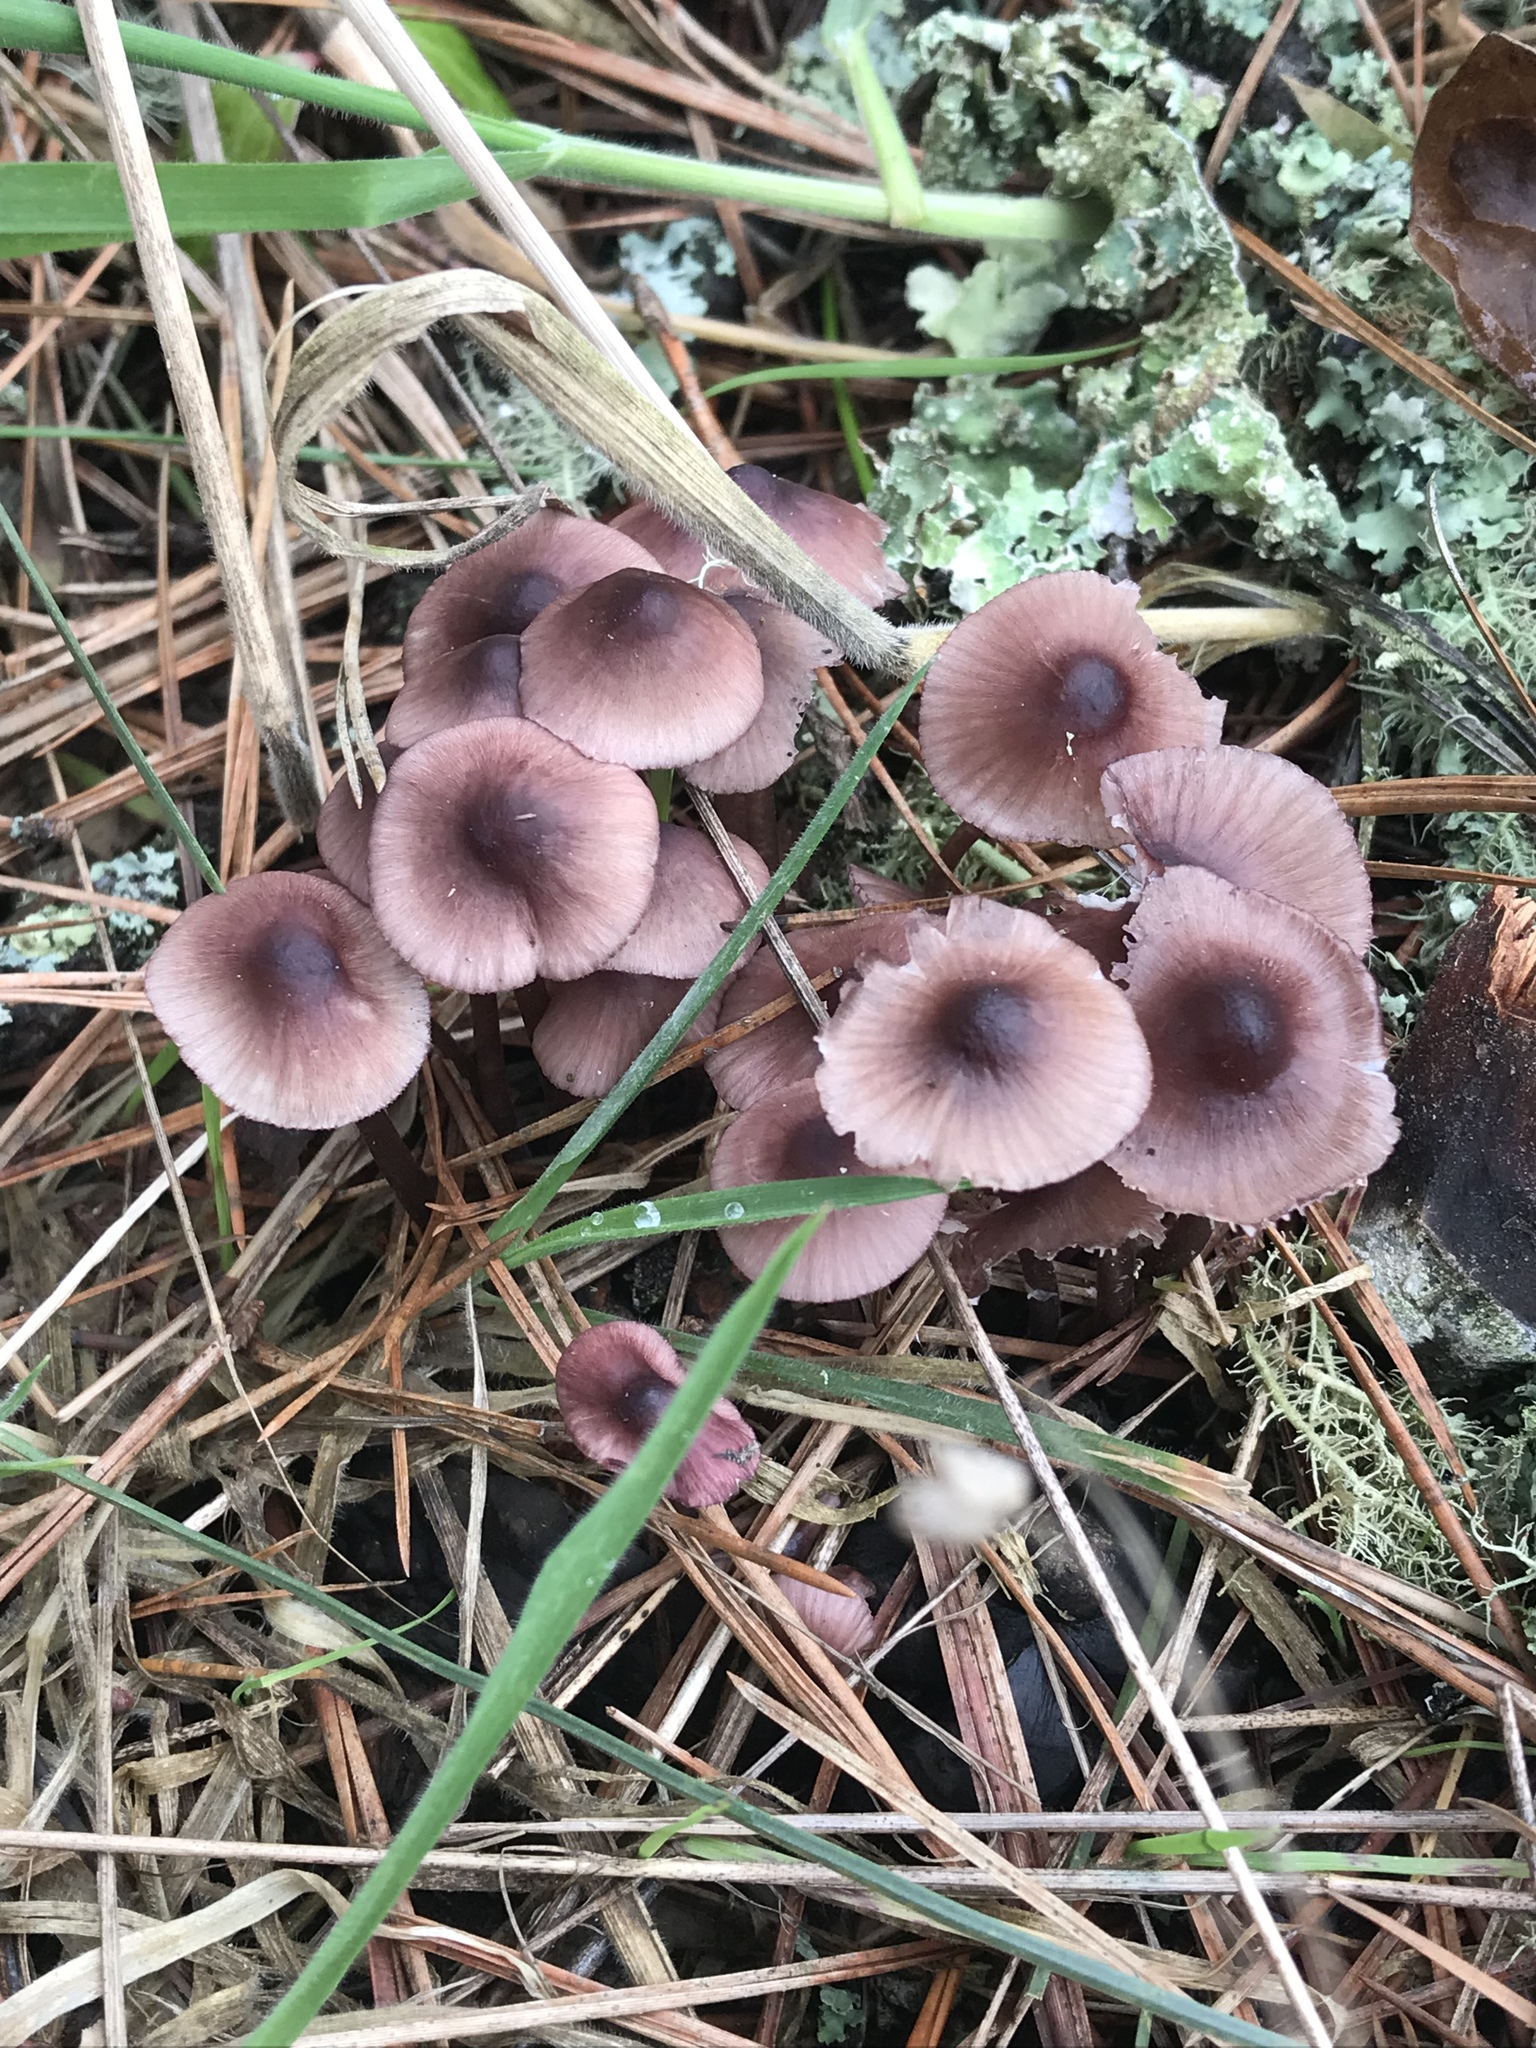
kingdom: Fungi
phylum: Basidiomycota
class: Agaricomycetes
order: Agaricales
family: Mycenaceae
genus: Mycena
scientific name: Mycena purpureofusca
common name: Purple edge bonnet
